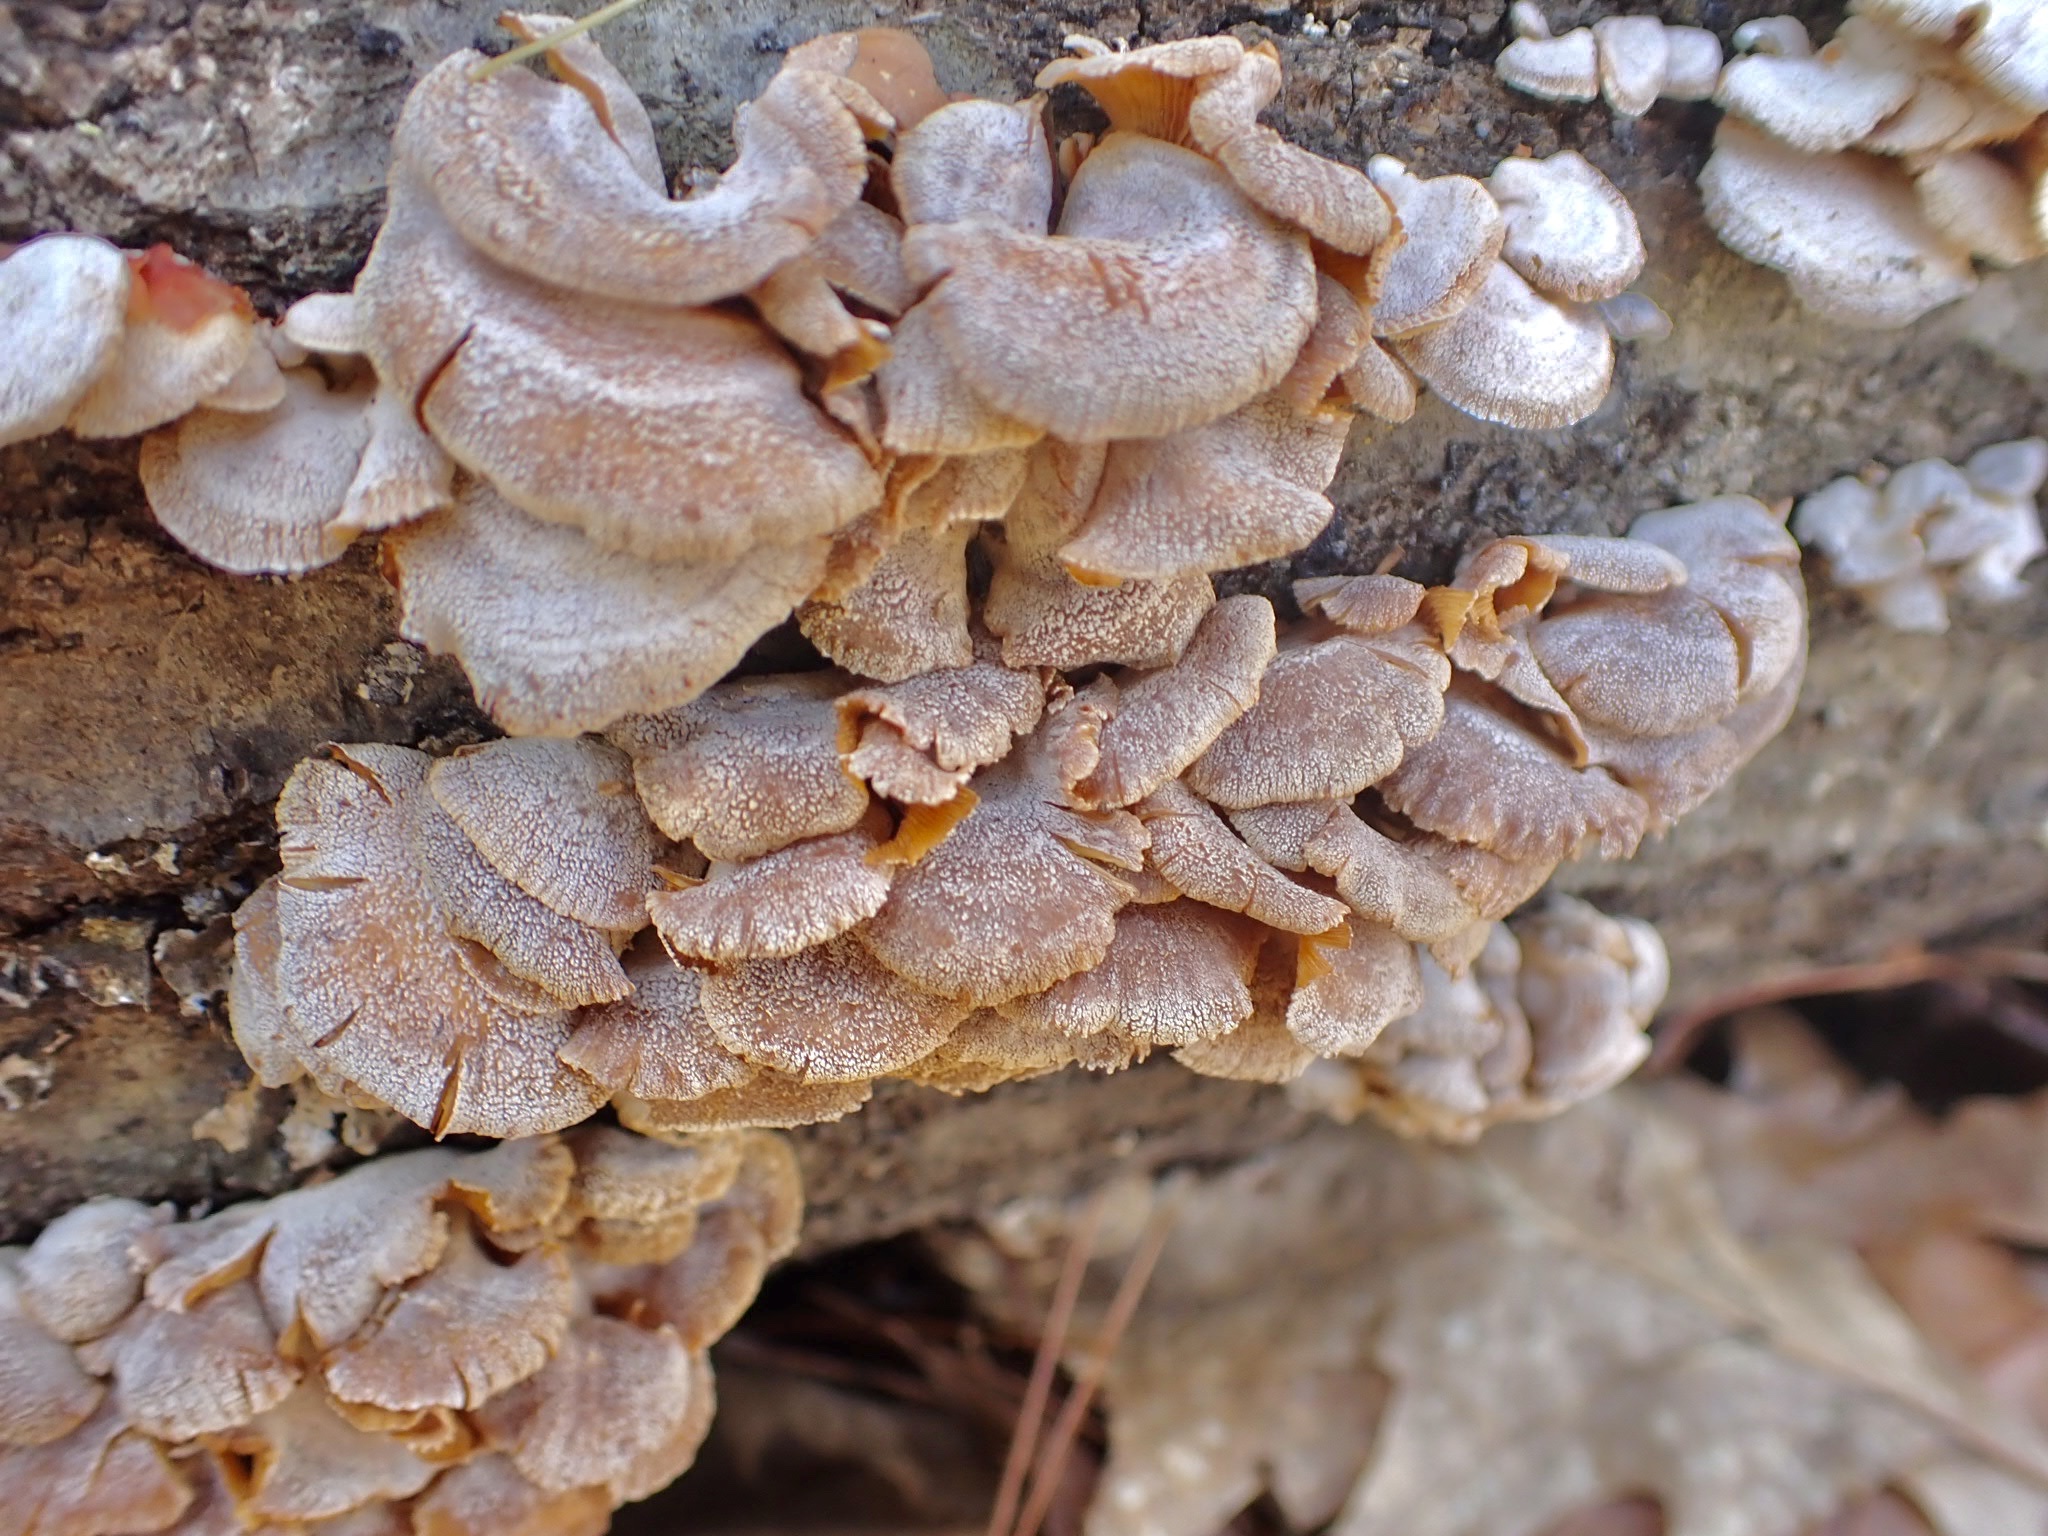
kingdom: Fungi
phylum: Basidiomycota
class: Agaricomycetes
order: Agaricales
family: Mycenaceae
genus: Panellus
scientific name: Panellus stipticus
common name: Bitter oysterling
